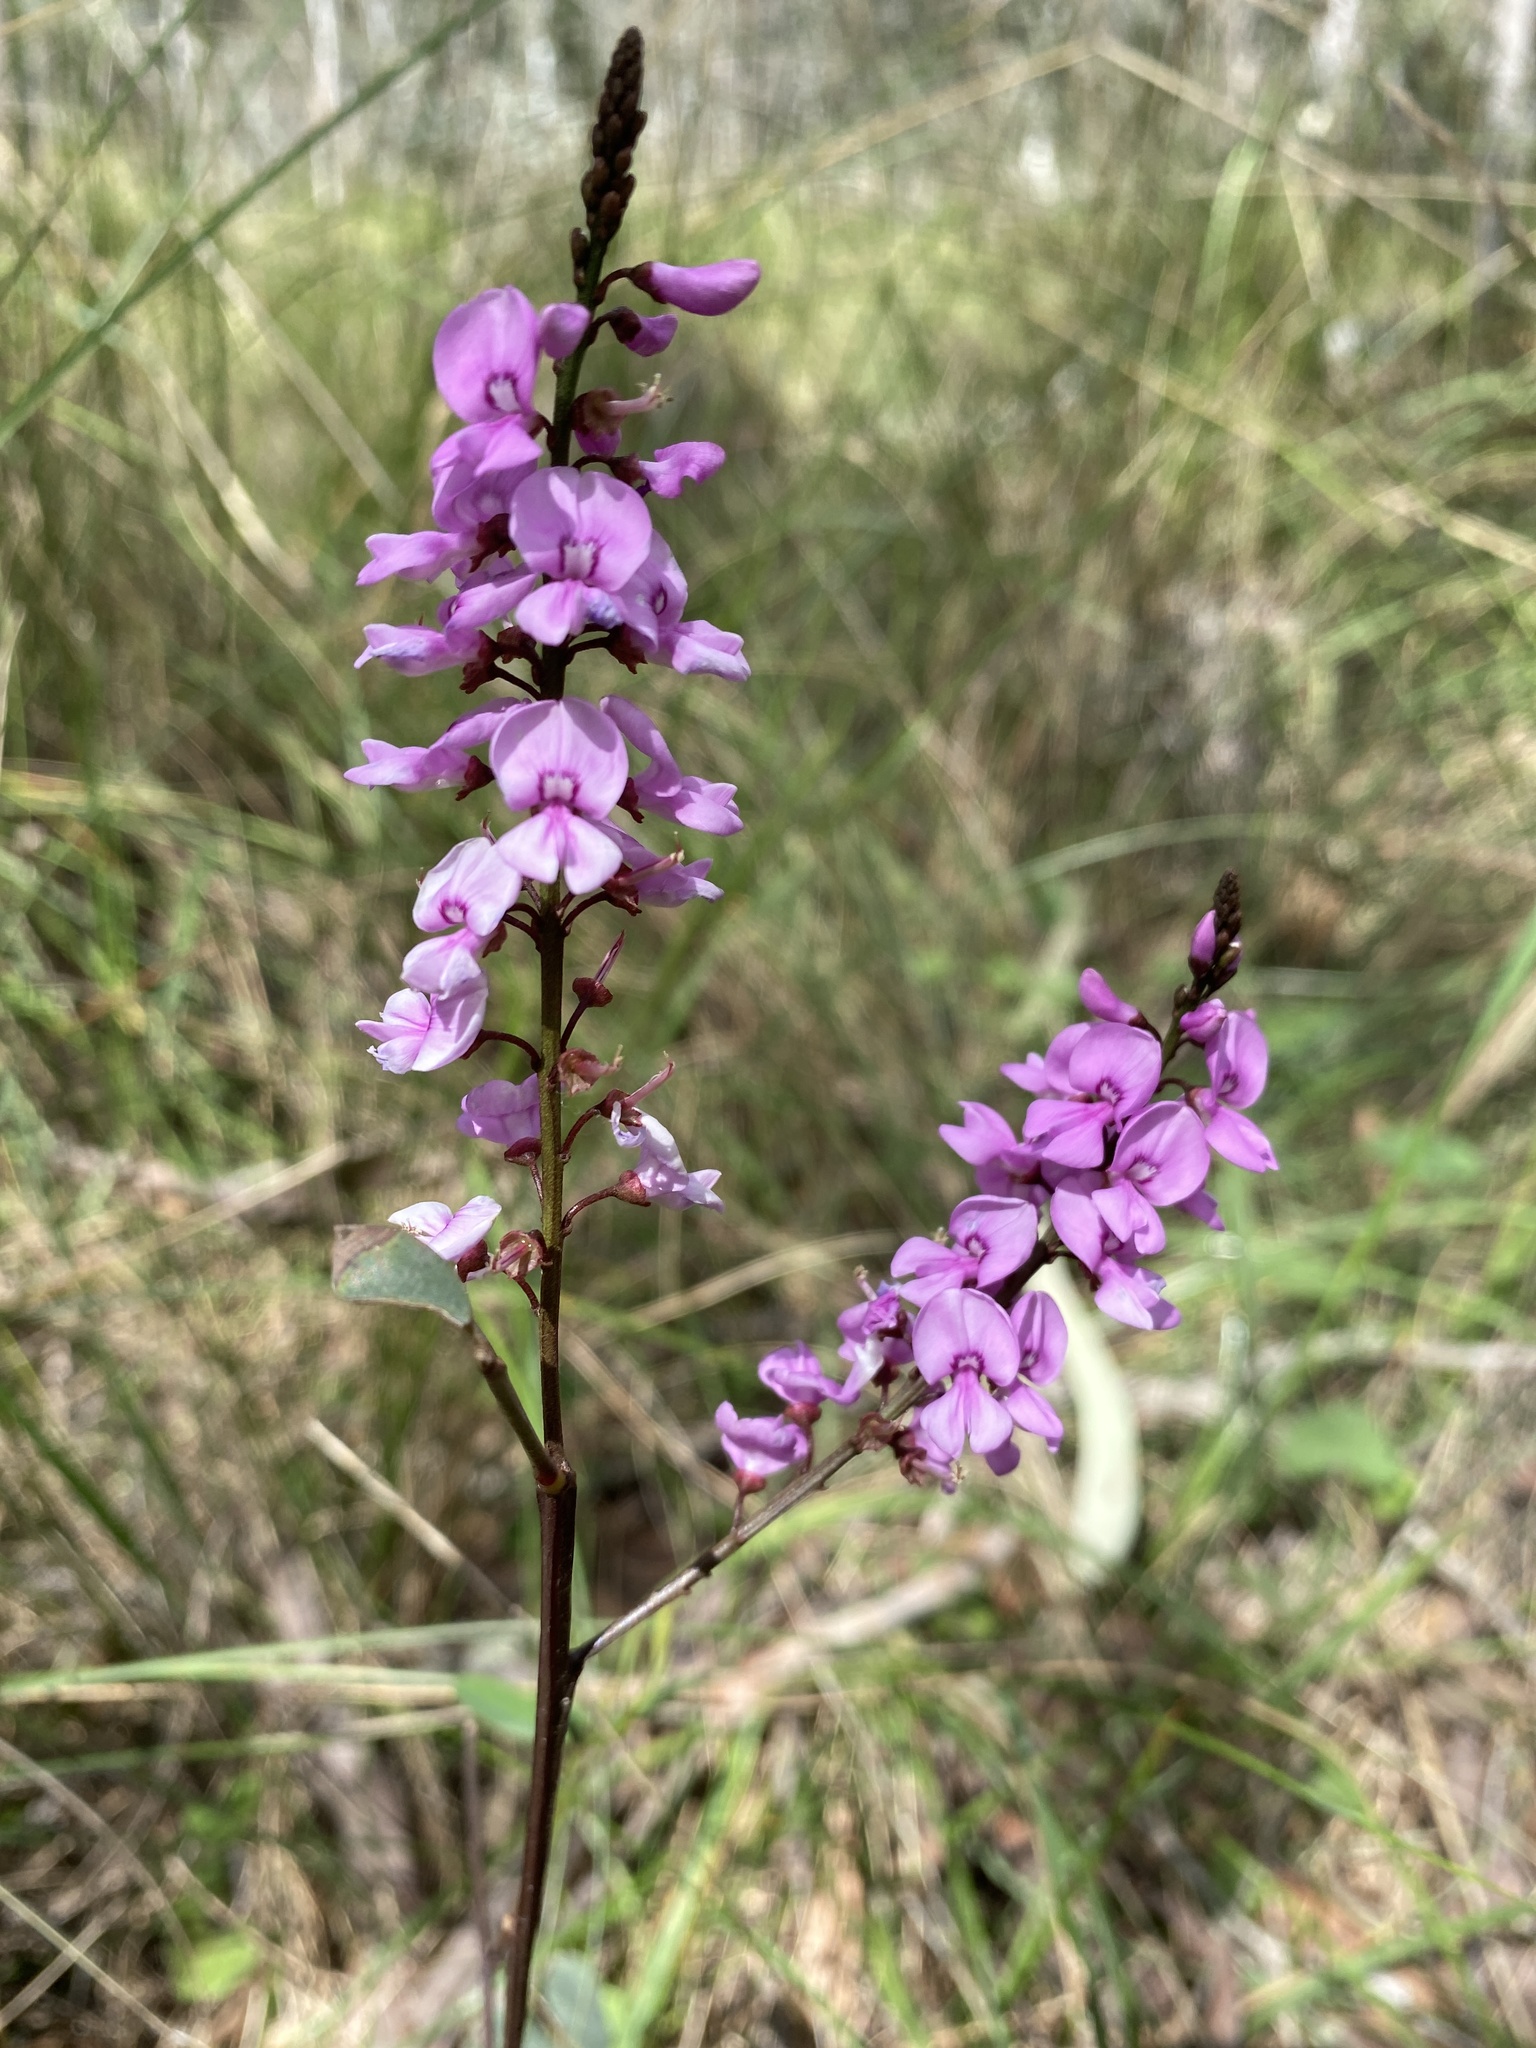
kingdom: Plantae
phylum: Tracheophyta
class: Magnoliopsida
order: Fabales
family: Fabaceae
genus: Indigofera
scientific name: Indigofera australis
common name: Australian indigo
